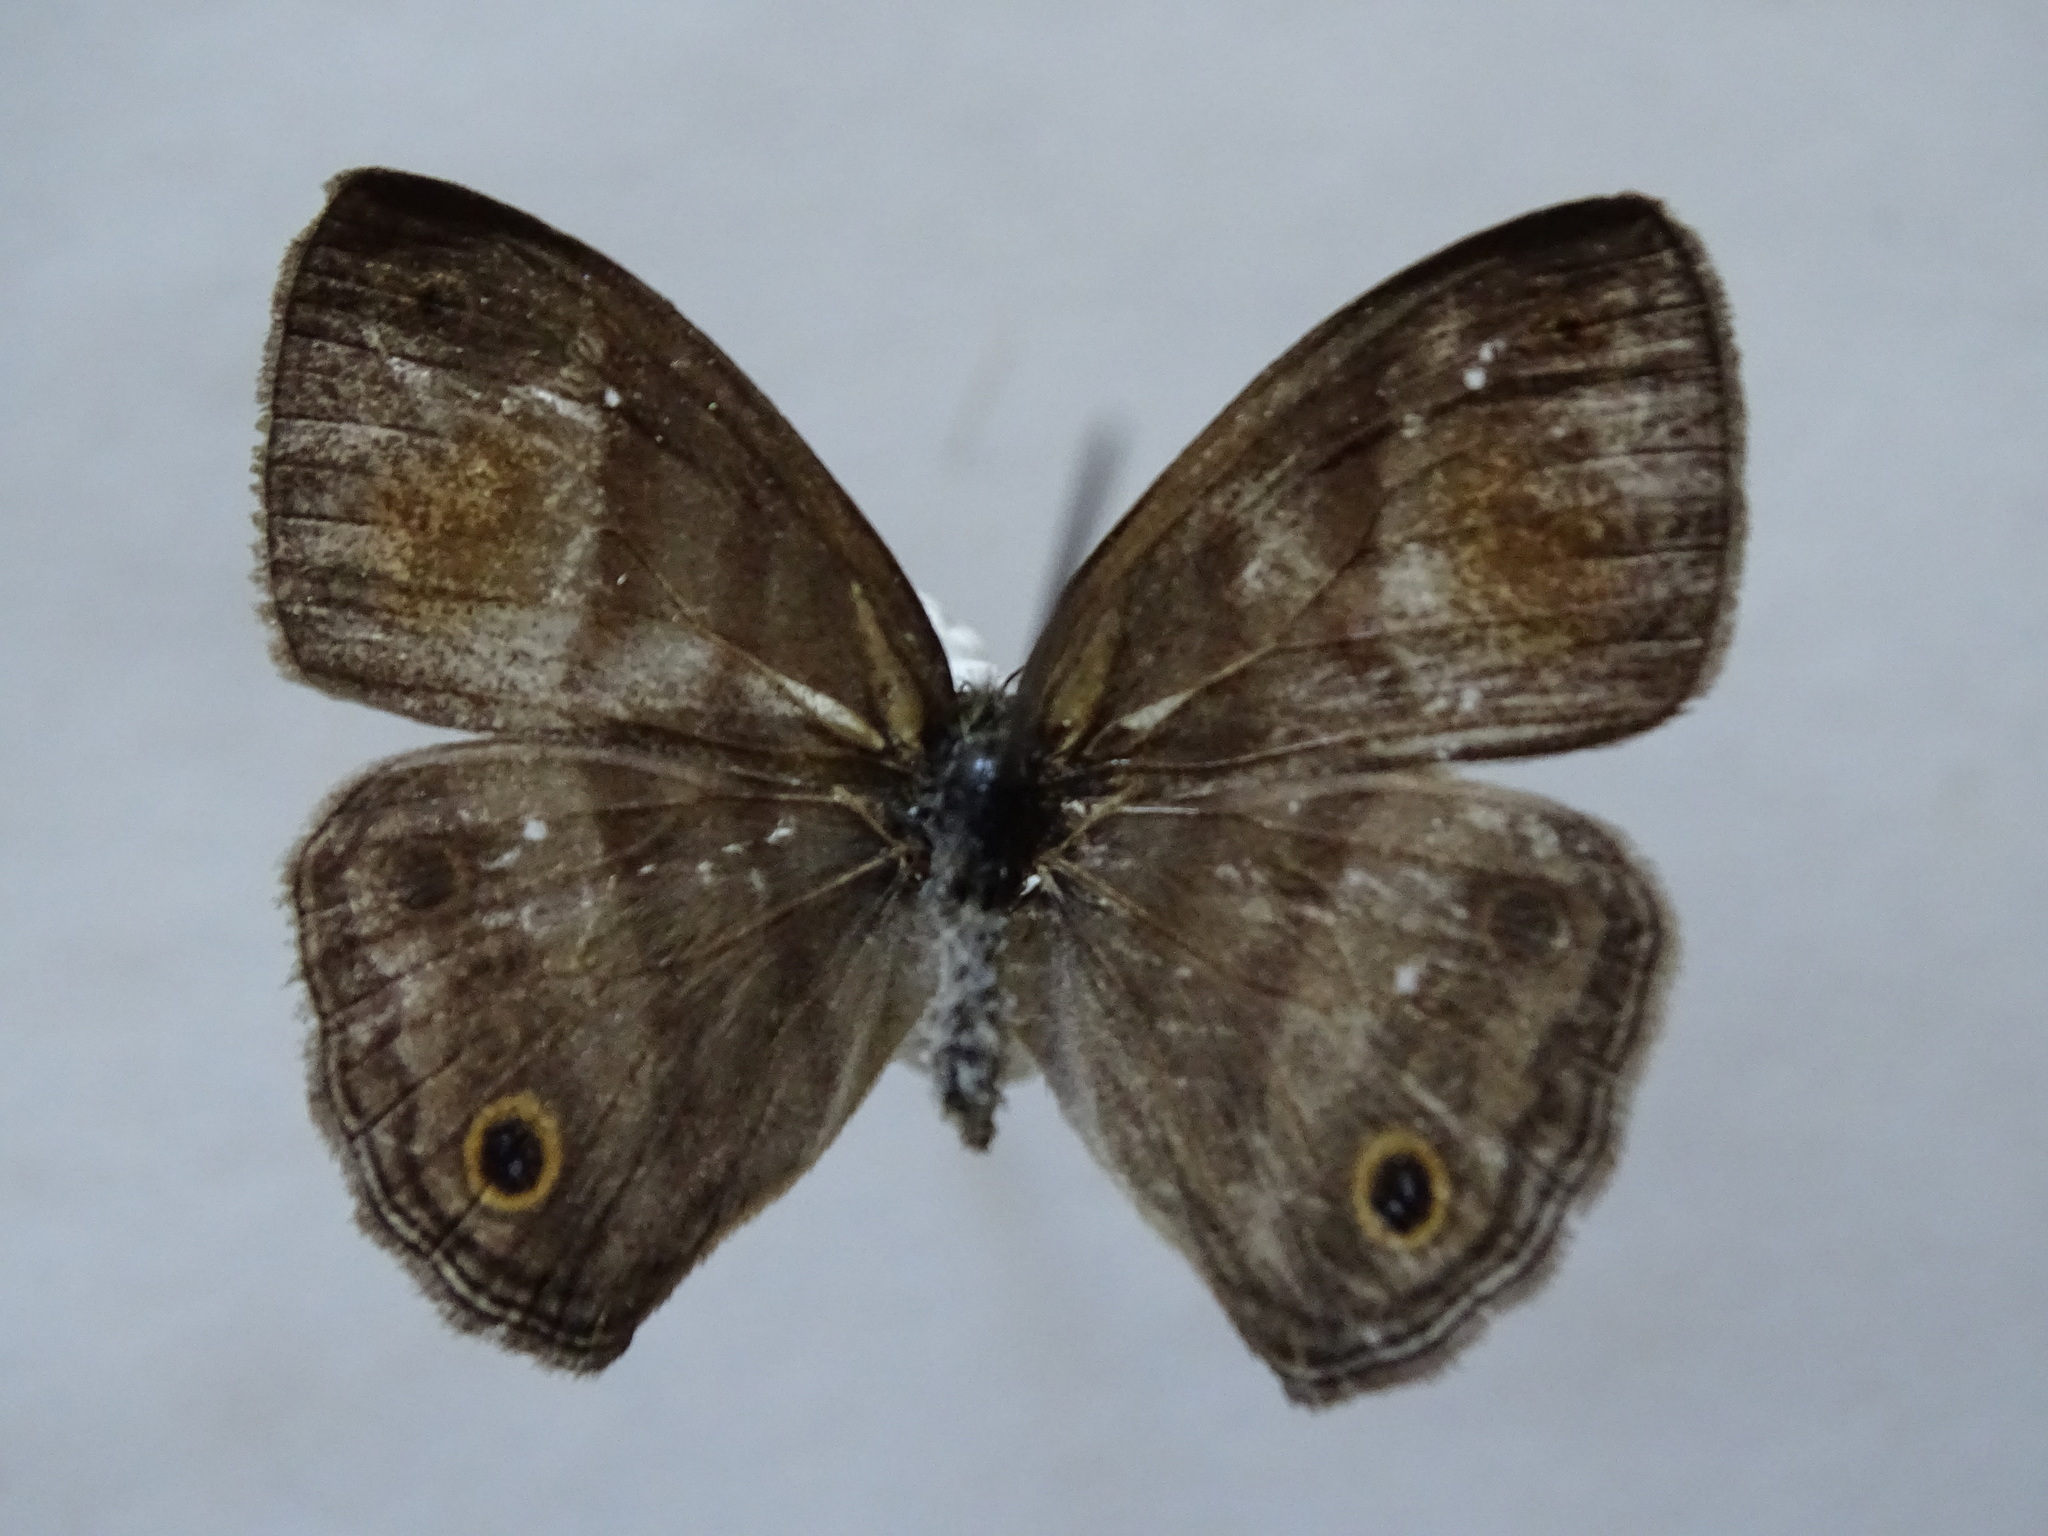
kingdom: Animalia
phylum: Arthropoda
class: Insecta
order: Lepidoptera
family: Nymphalidae
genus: Paryphthimoides
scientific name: Paryphthimoides
